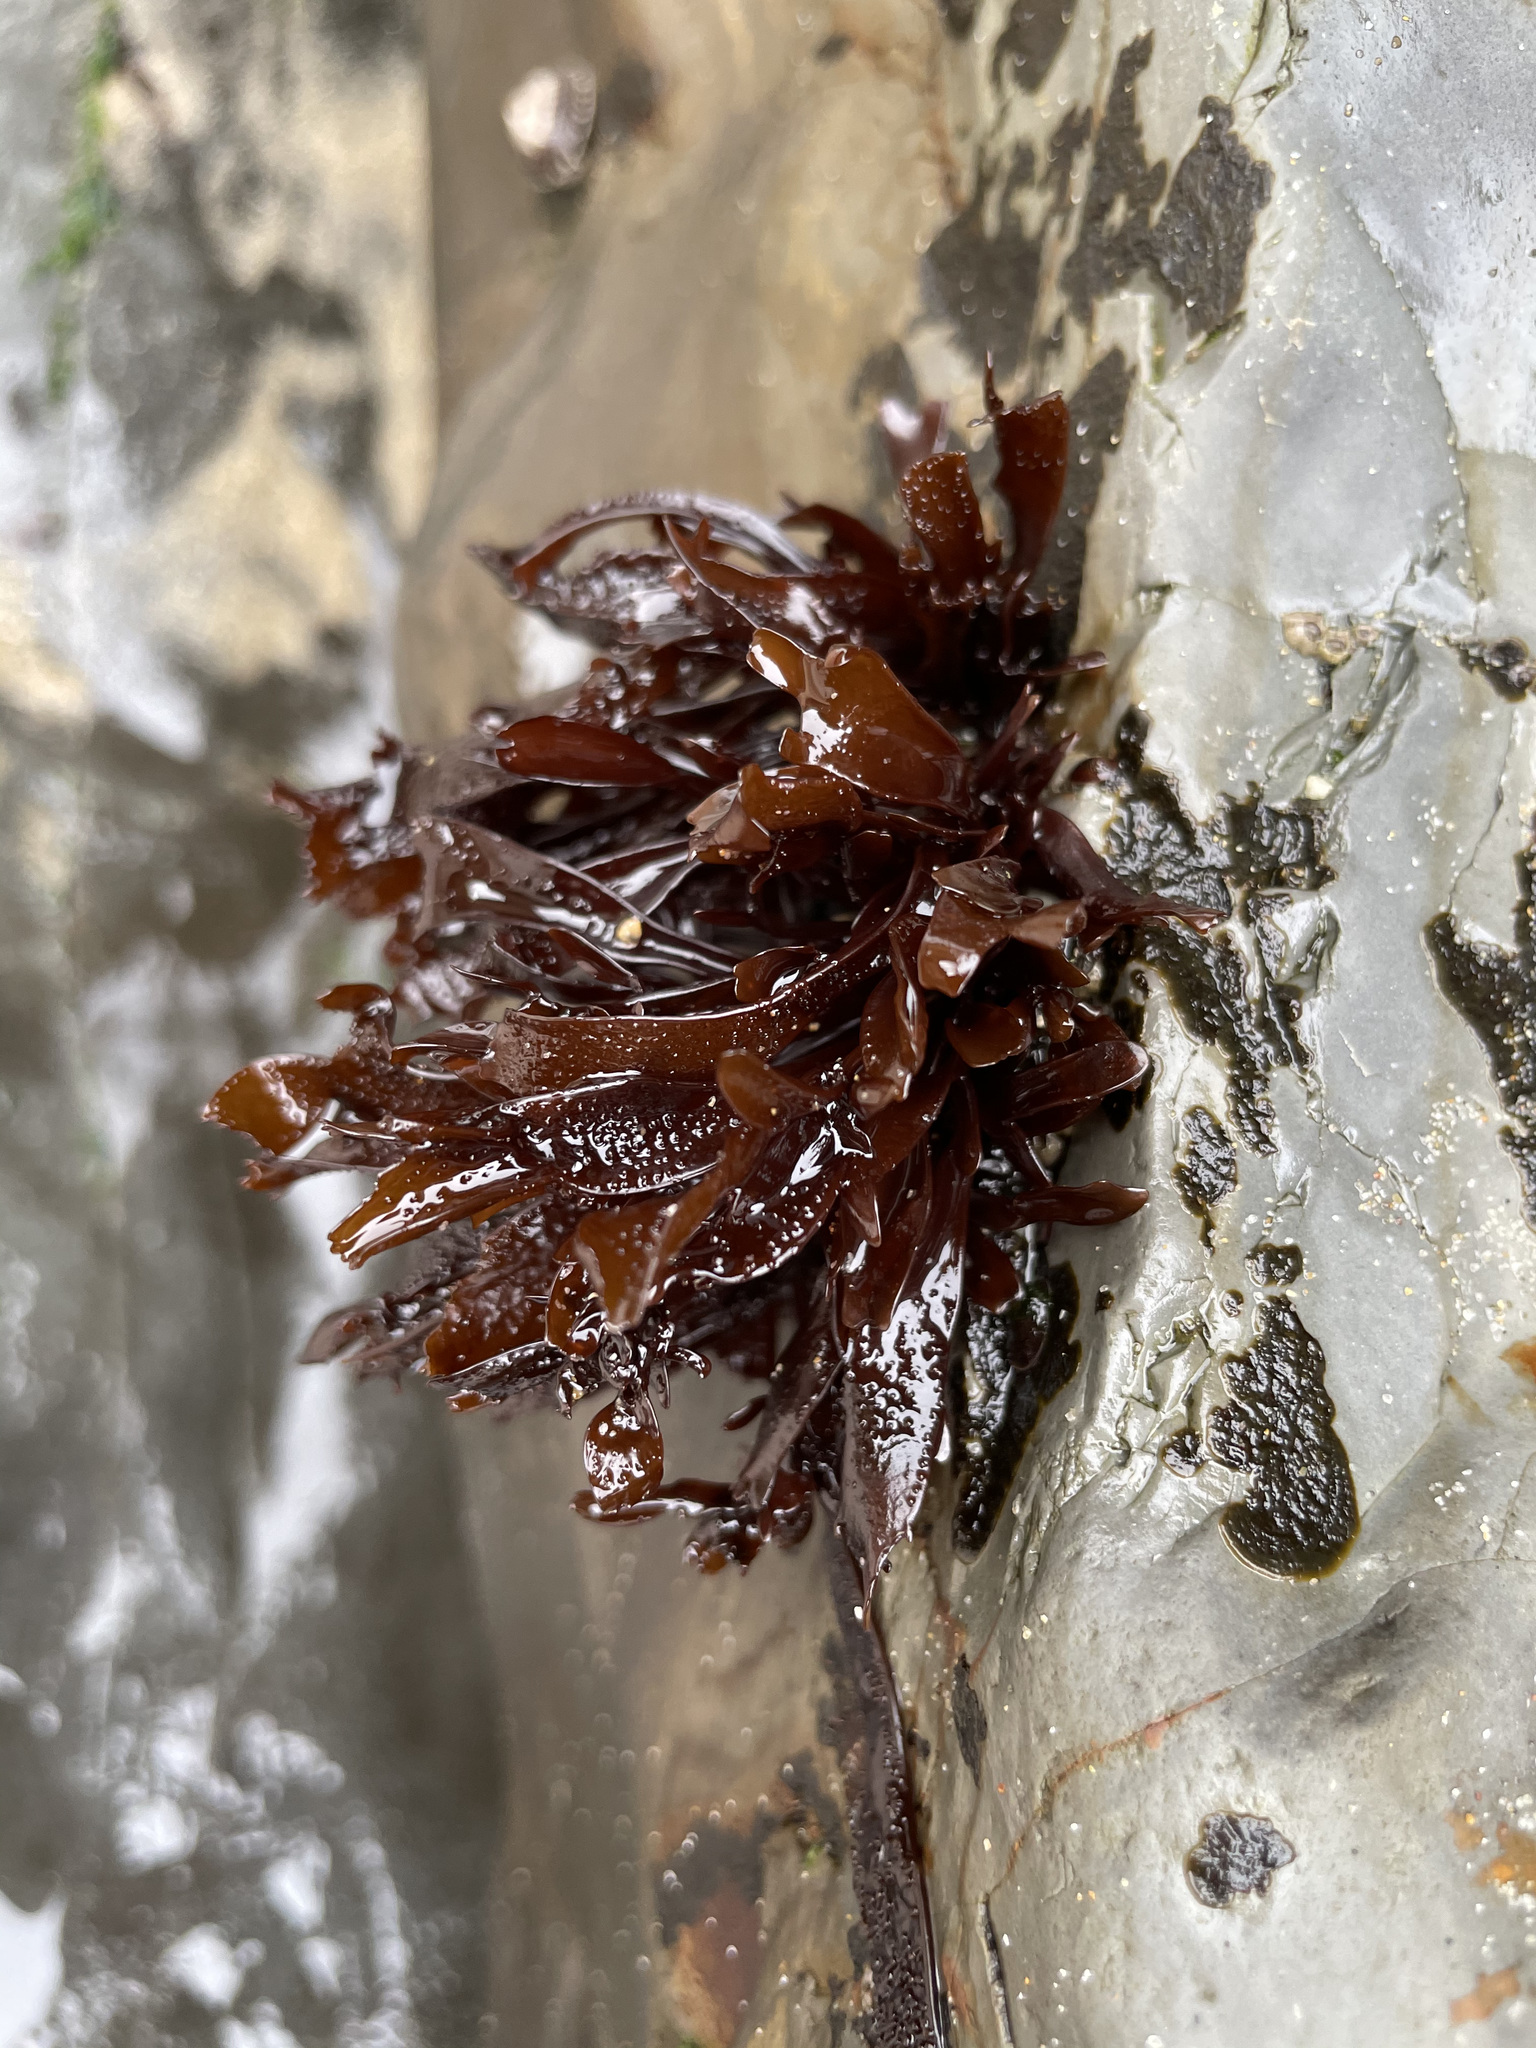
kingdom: Plantae
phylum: Rhodophyta
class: Florideophyceae
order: Gigartinales
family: Phyllophoraceae
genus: Mastocarpus
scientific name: Mastocarpus papillatus
